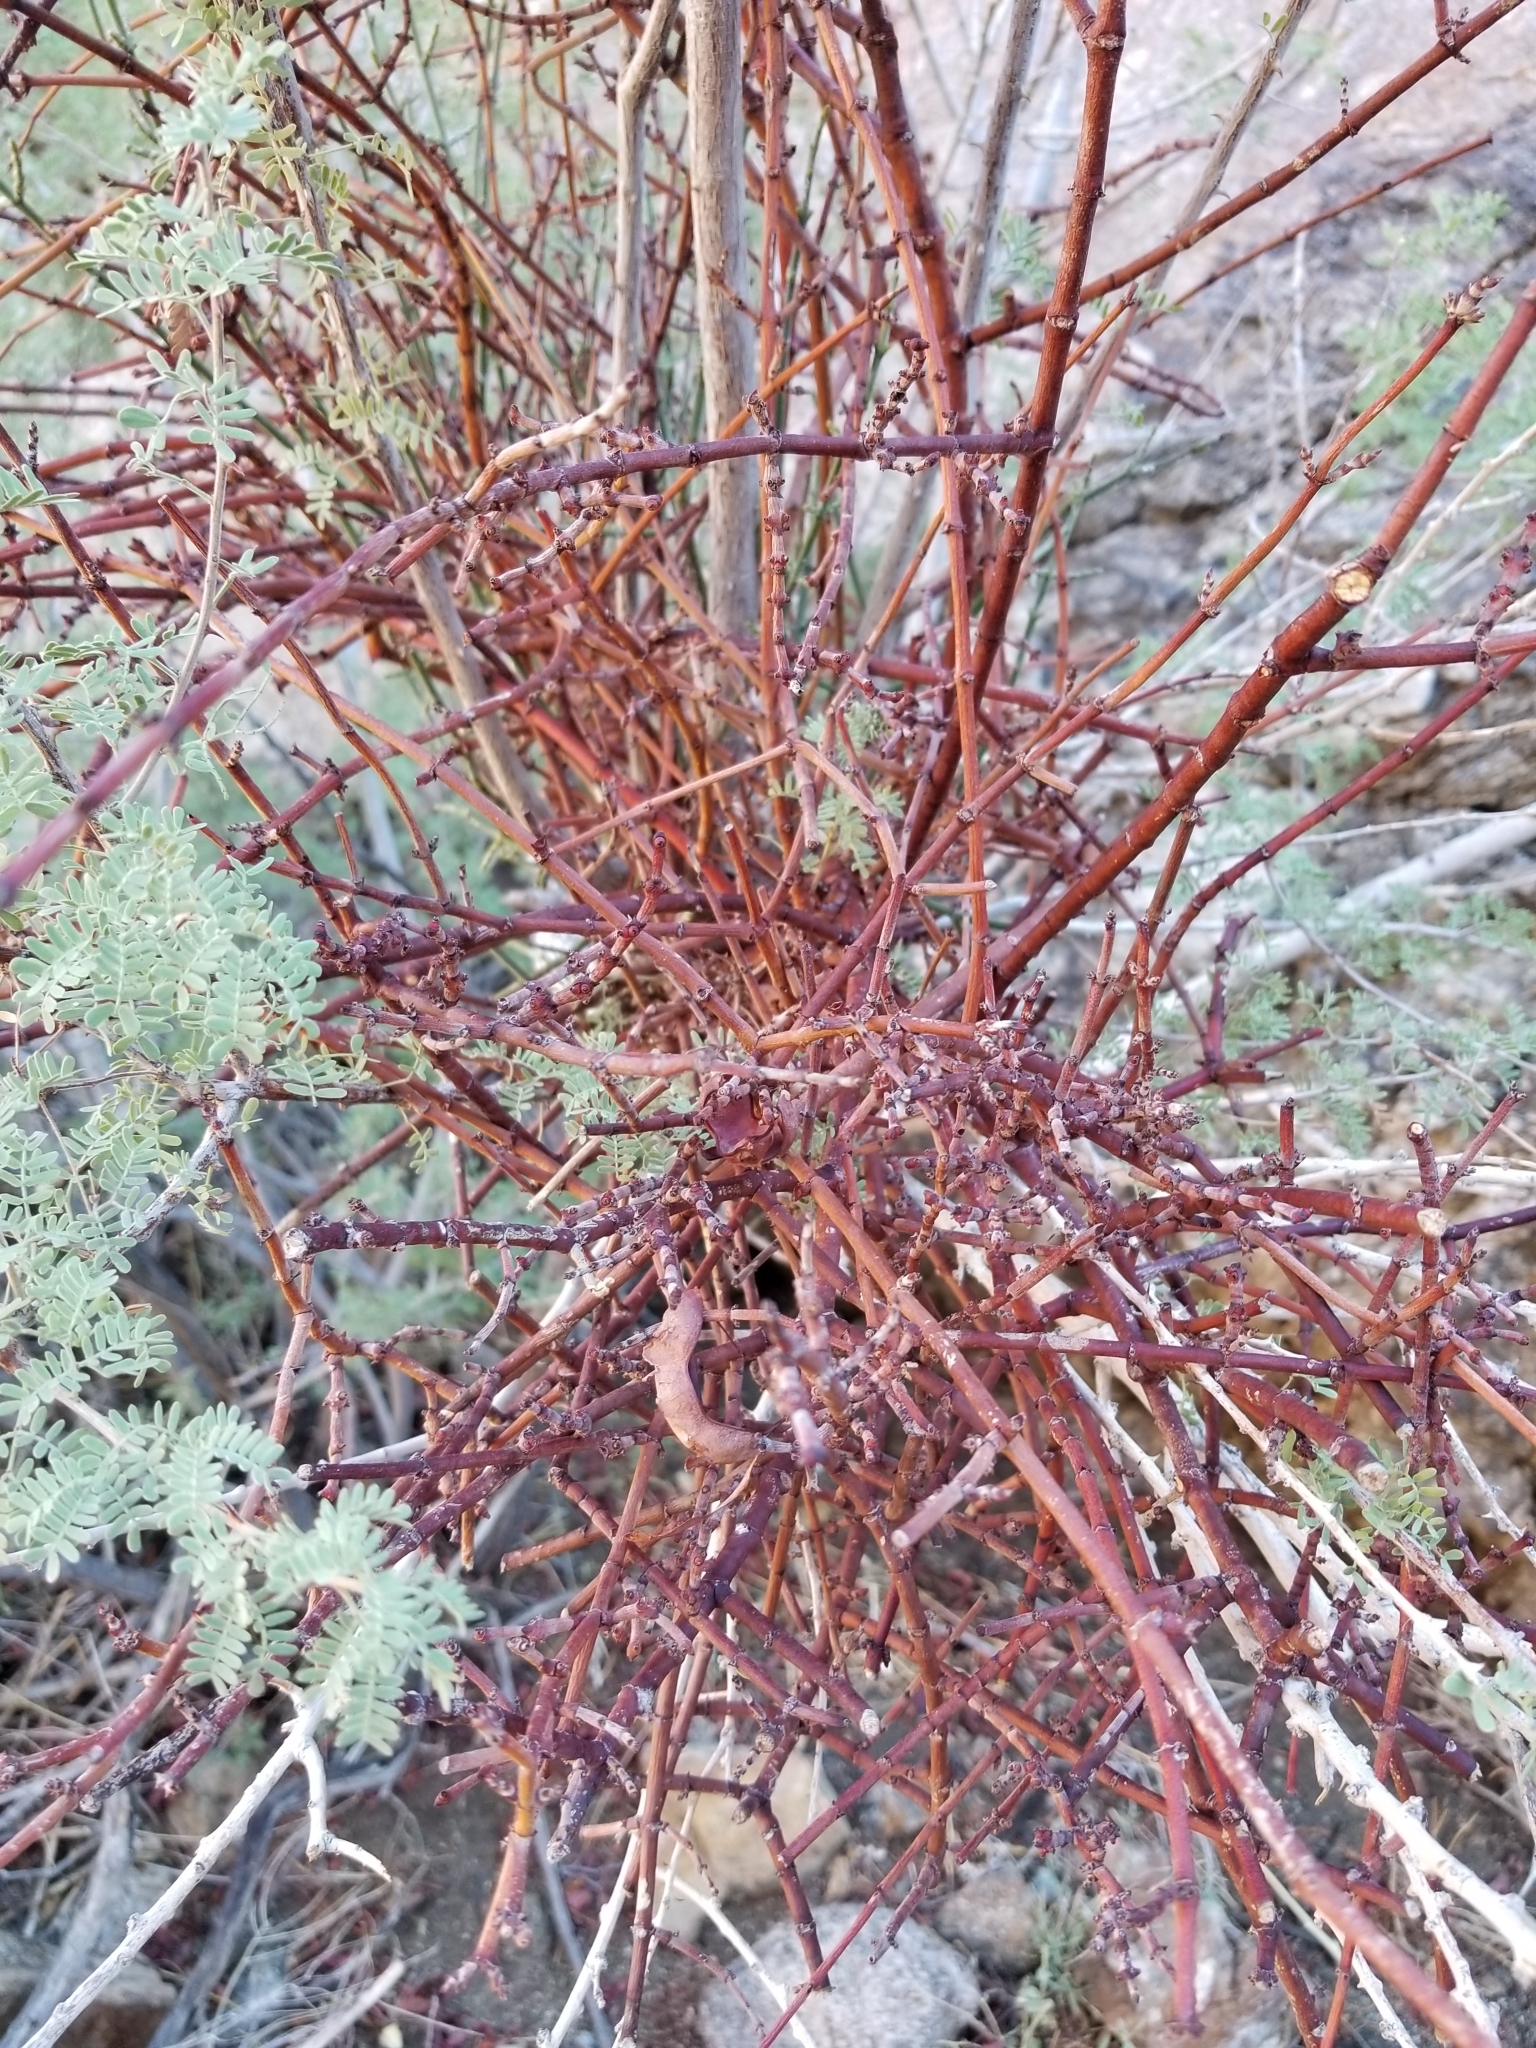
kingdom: Plantae
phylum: Tracheophyta
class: Magnoliopsida
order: Santalales
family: Viscaceae
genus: Phoradendron
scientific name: Phoradendron californicum
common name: Acacia mistletoe
